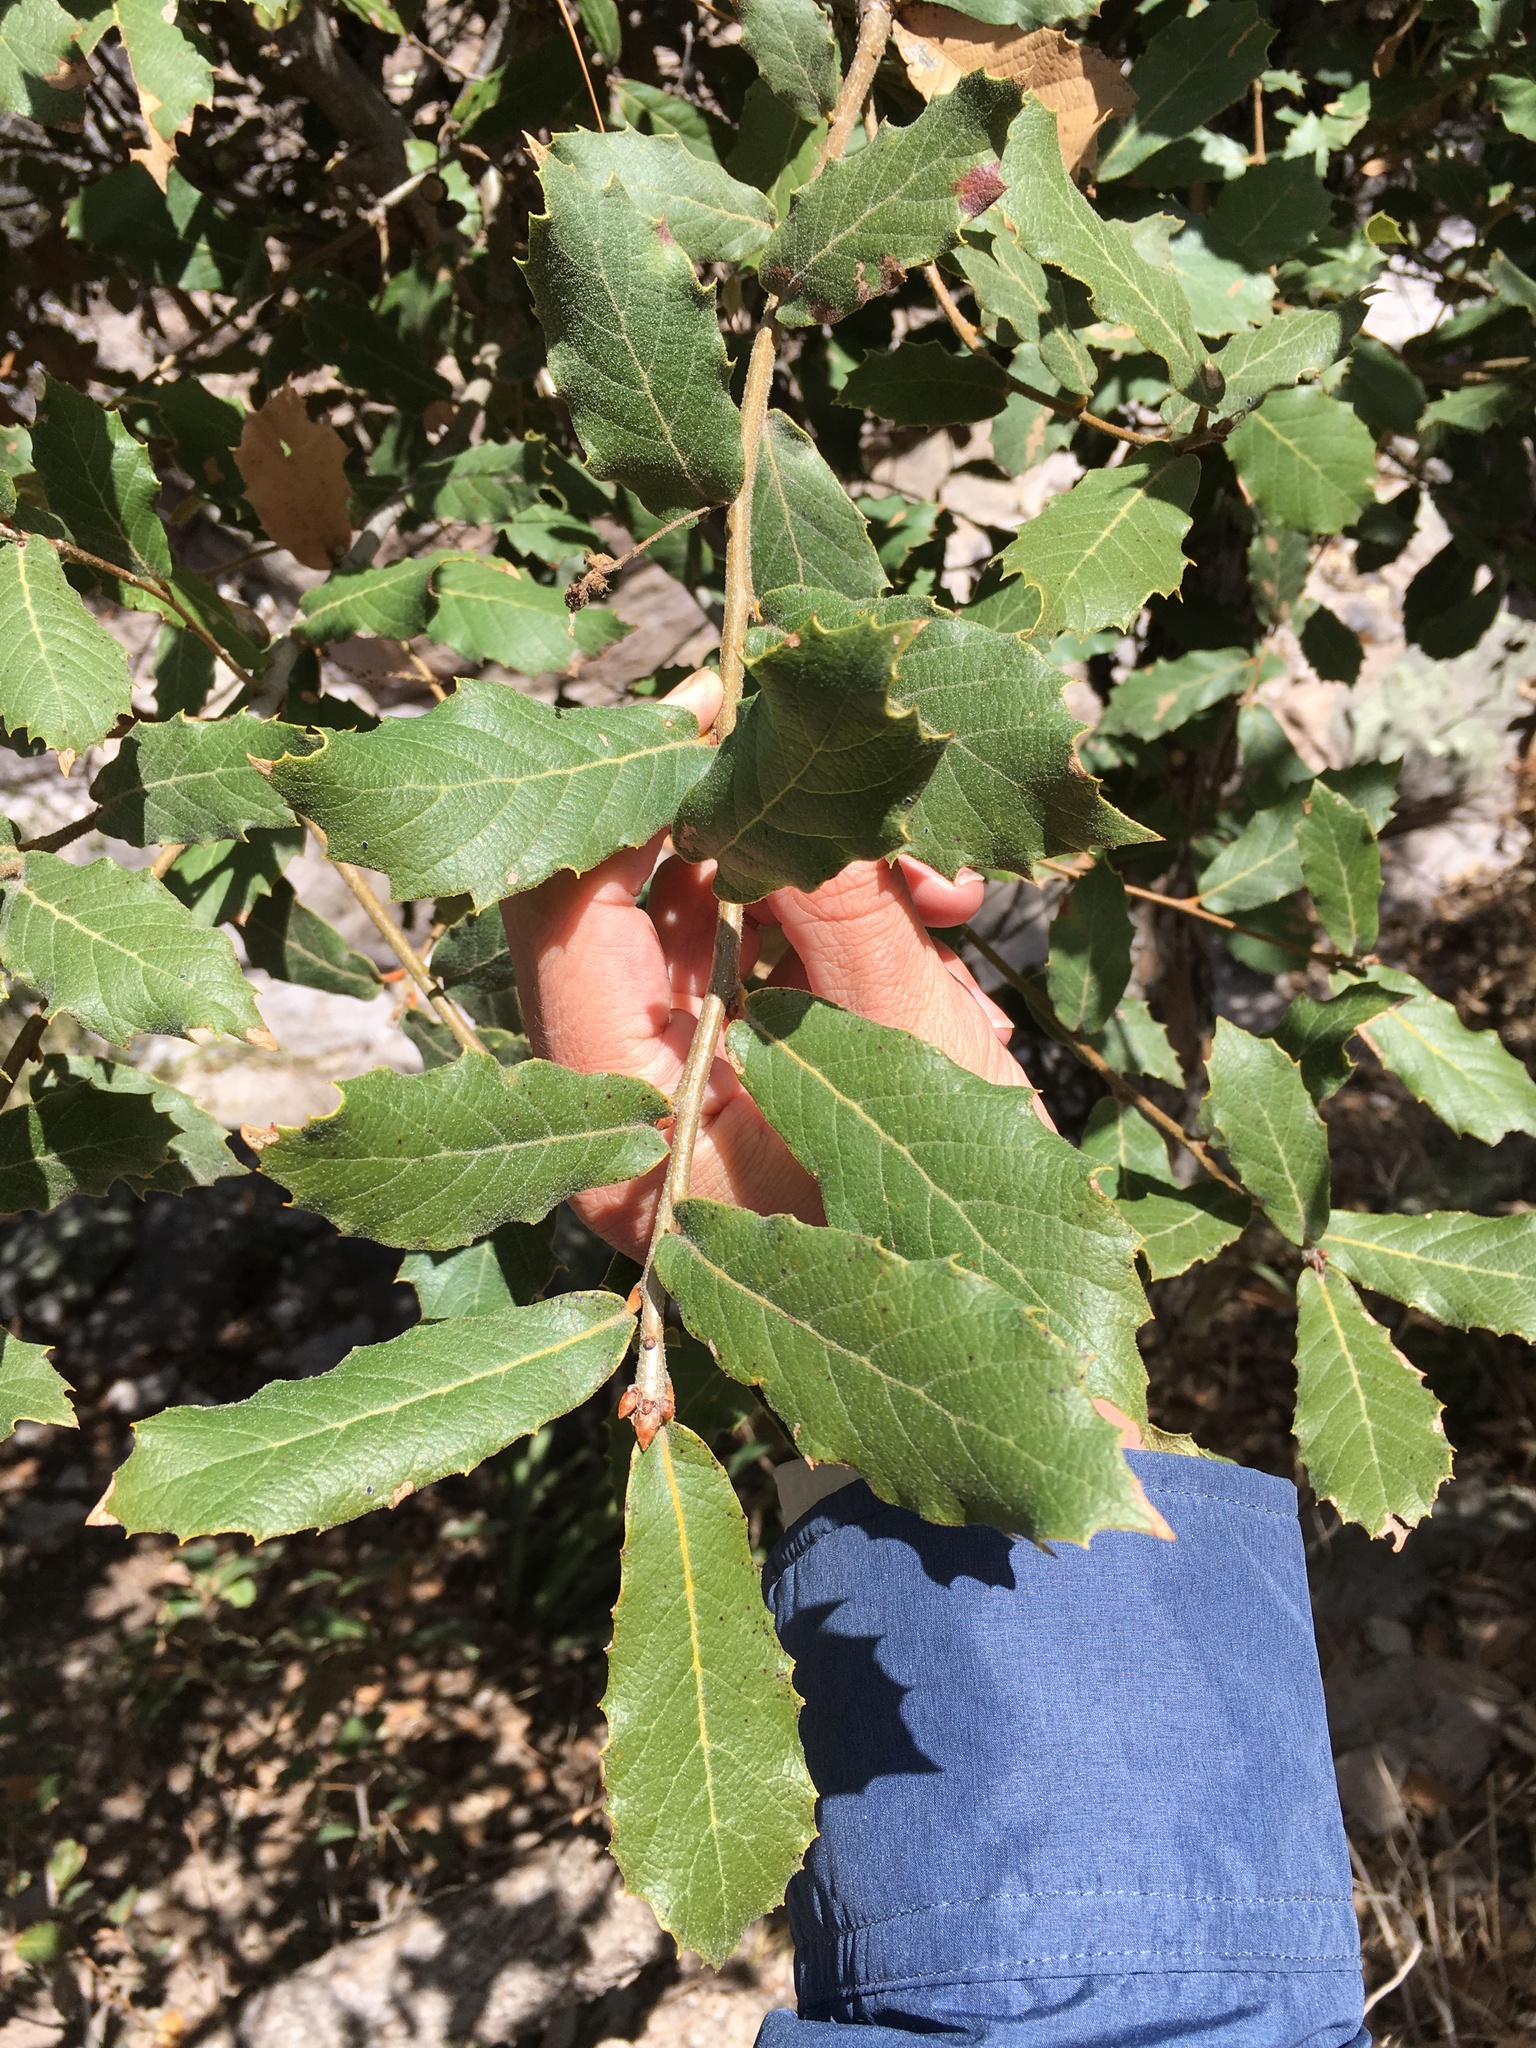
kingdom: Plantae
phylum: Tracheophyta
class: Magnoliopsida
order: Fagales
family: Fagaceae
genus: Quercus
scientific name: Quercus rugosa
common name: Netleaf oak
